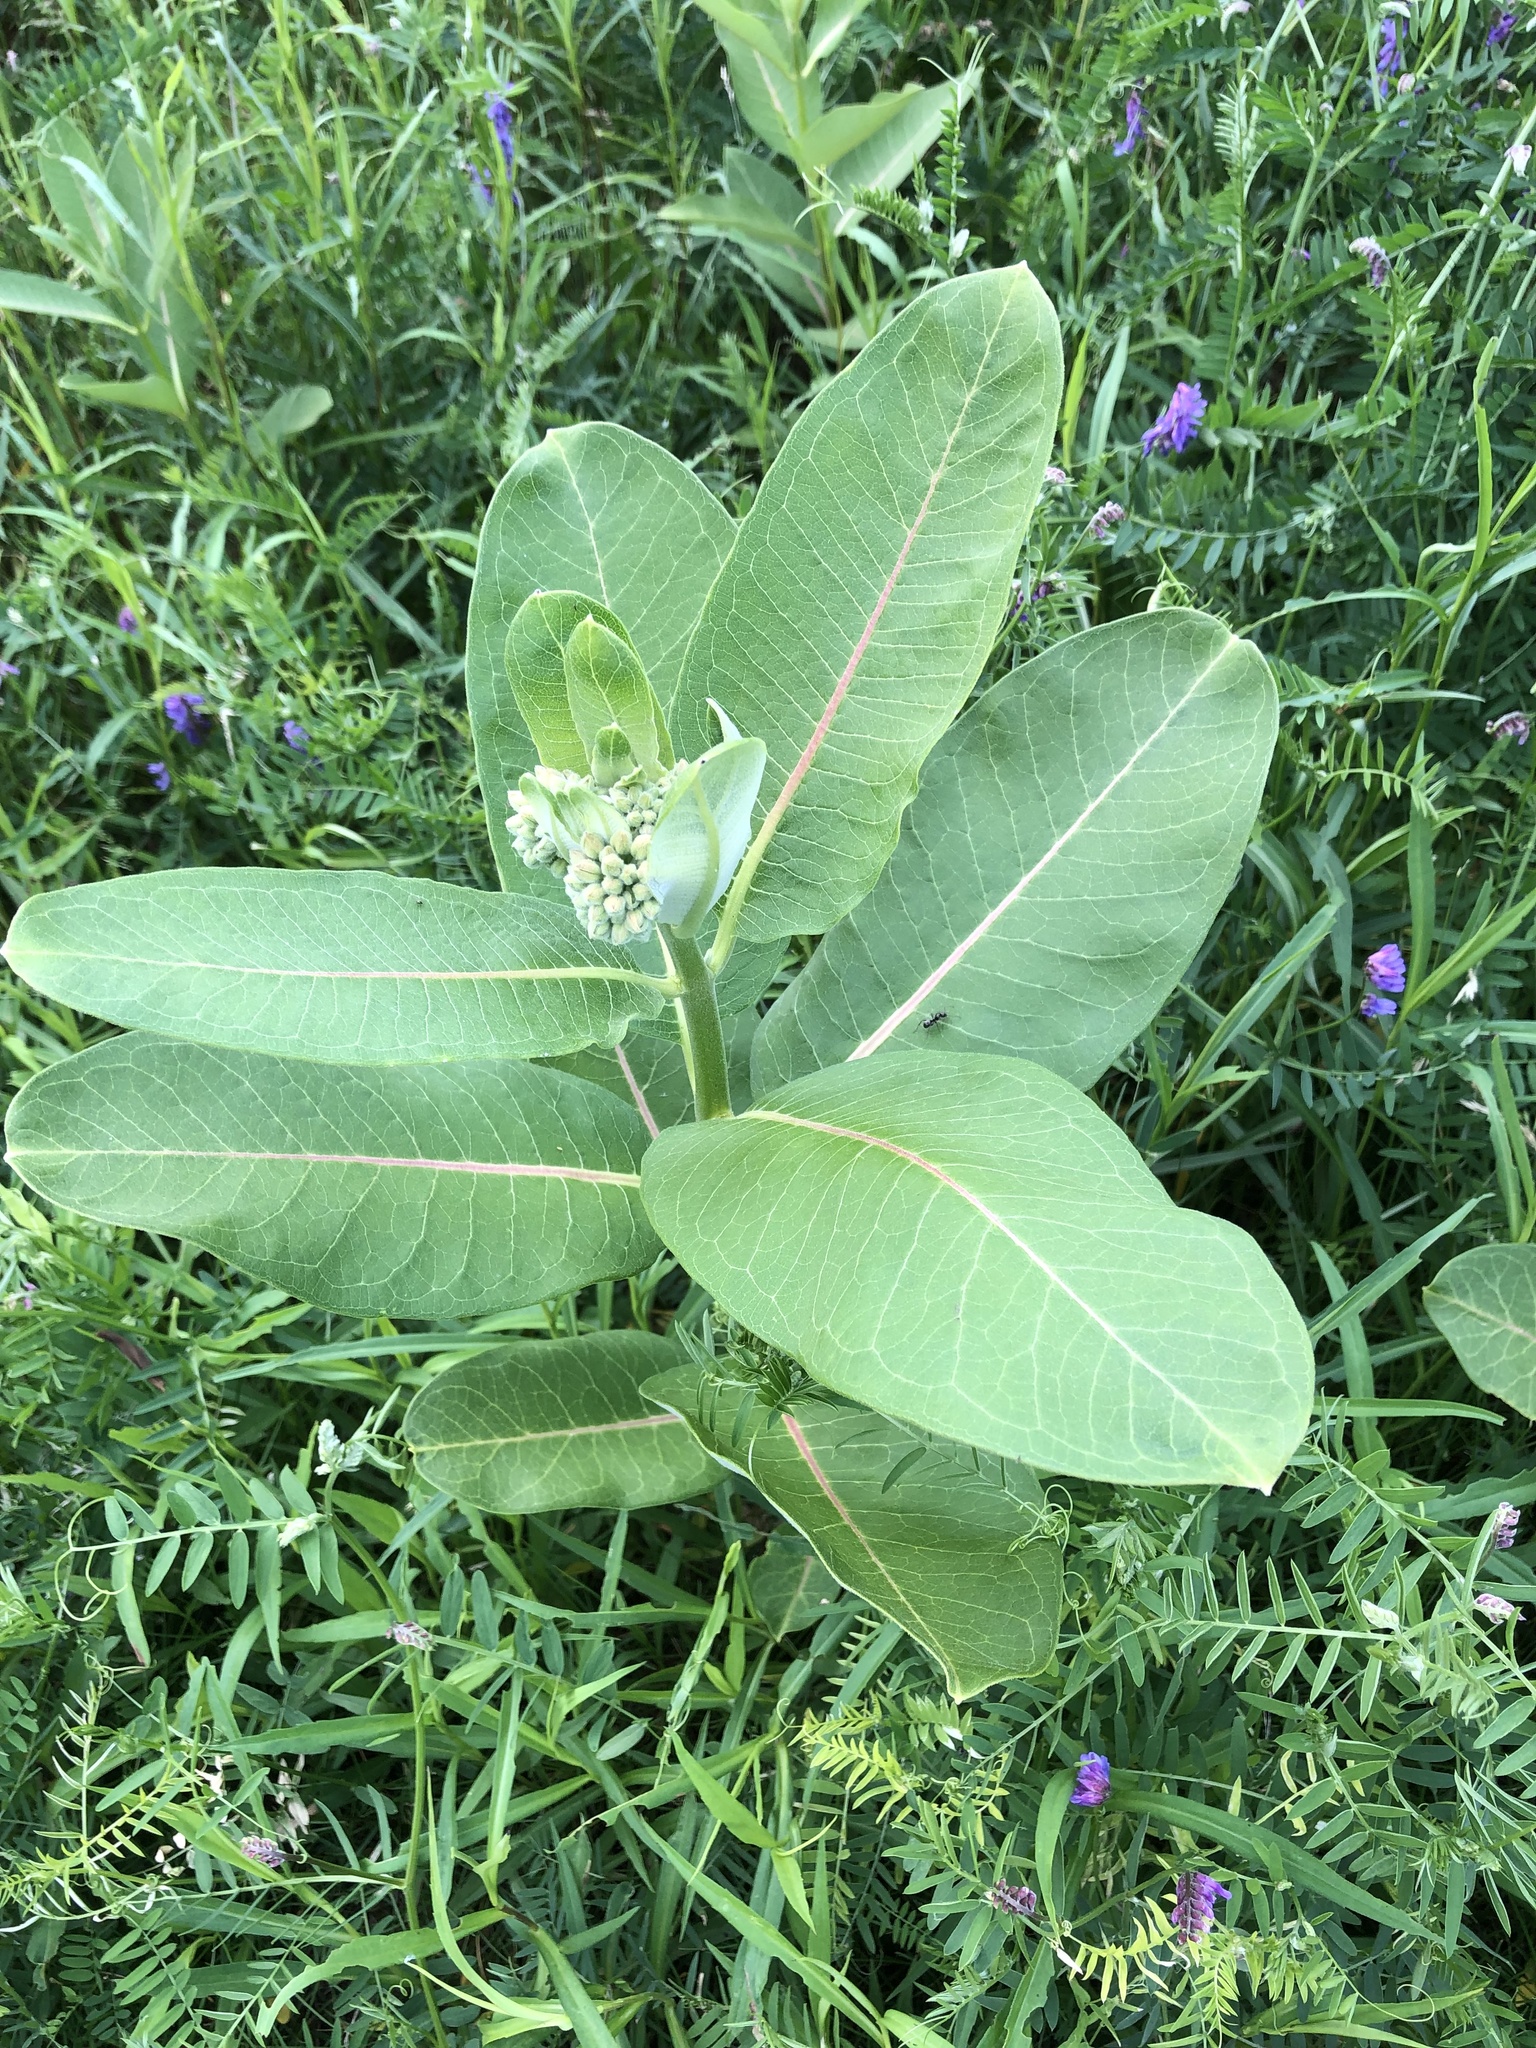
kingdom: Plantae
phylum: Tracheophyta
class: Magnoliopsida
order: Gentianales
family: Apocynaceae
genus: Asclepias
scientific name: Asclepias syriaca
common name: Common milkweed
